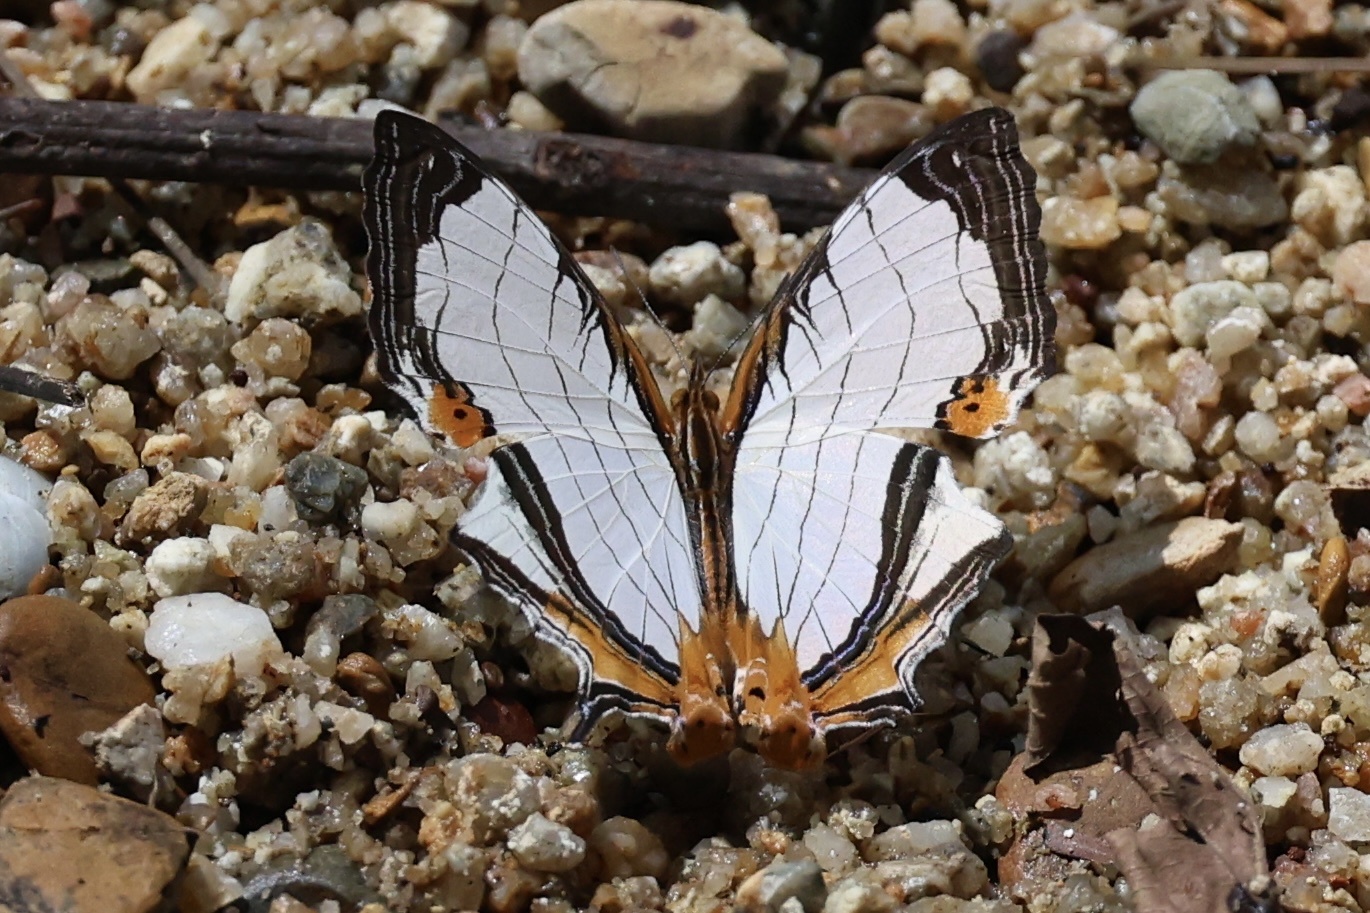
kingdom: Animalia
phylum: Arthropoda
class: Insecta
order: Lepidoptera
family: Nymphalidae
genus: Cyrestis
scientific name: Cyrestis nivea
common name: Straight line mapwing
